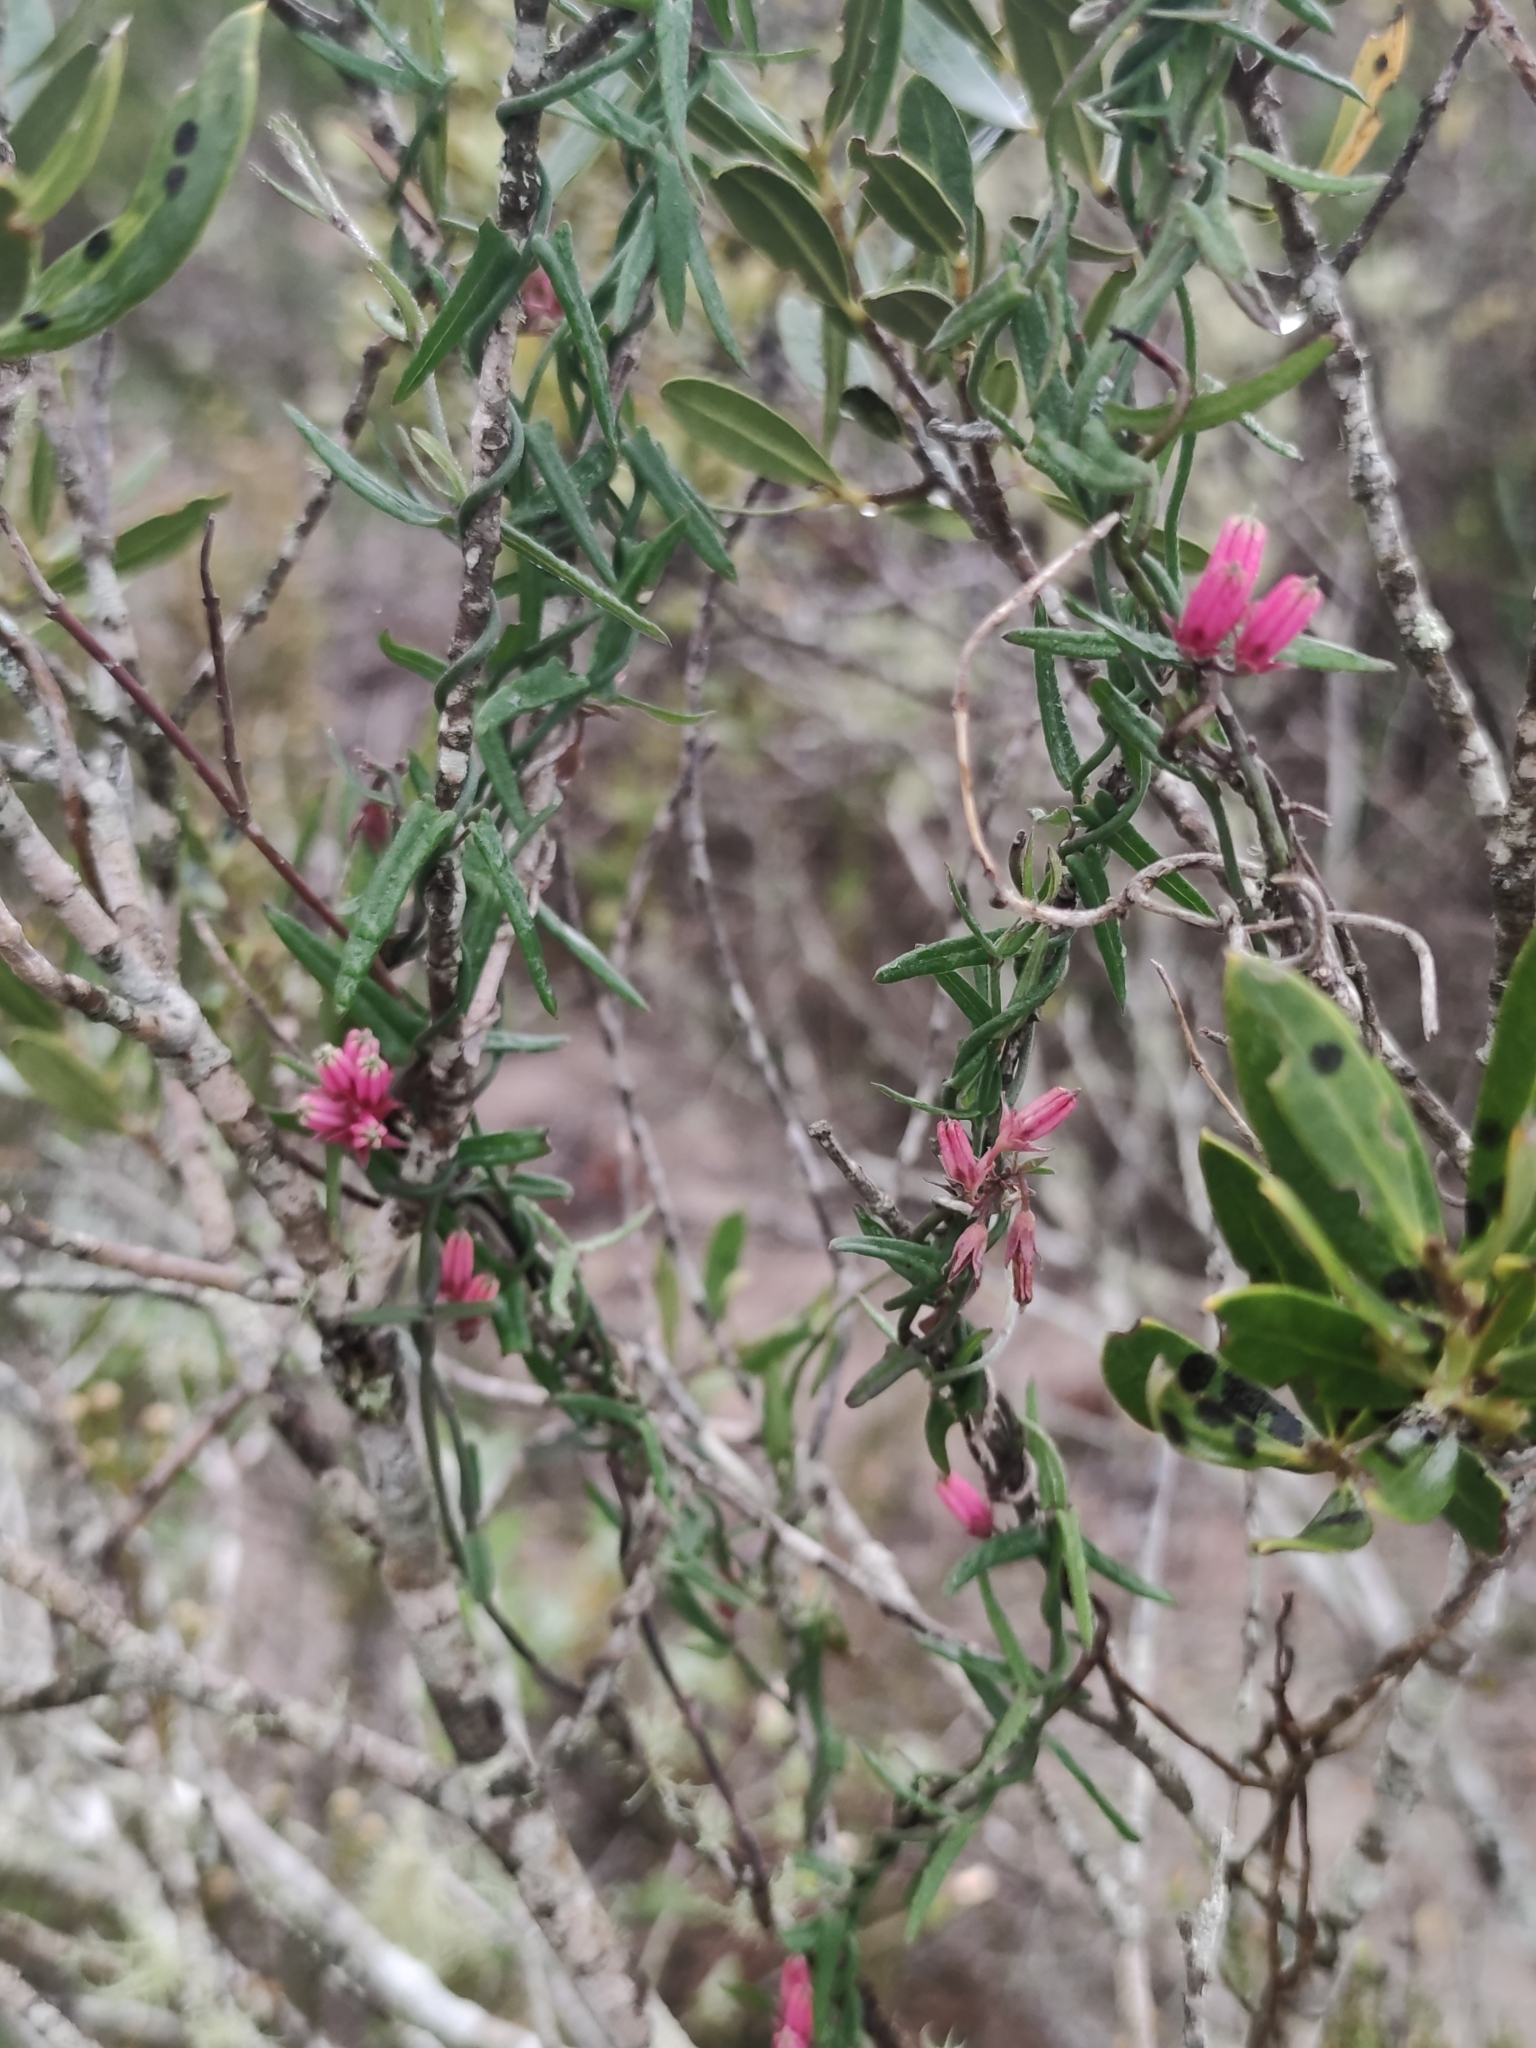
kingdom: Plantae
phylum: Tracheophyta
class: Magnoliopsida
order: Gentianales
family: Apocynaceae
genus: Microloma
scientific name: Microloma sagittatum
